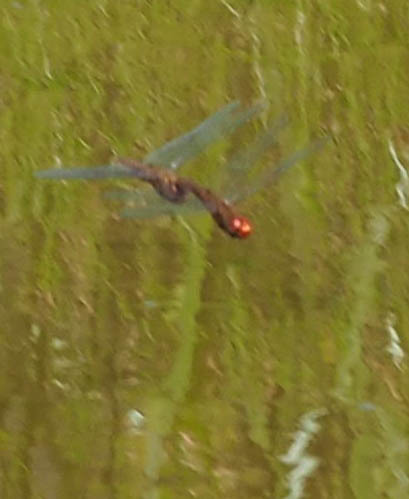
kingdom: Animalia
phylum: Arthropoda
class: Insecta
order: Odonata
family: Libellulidae
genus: Pantala
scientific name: Pantala hymenaea
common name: Spot-winged glider
